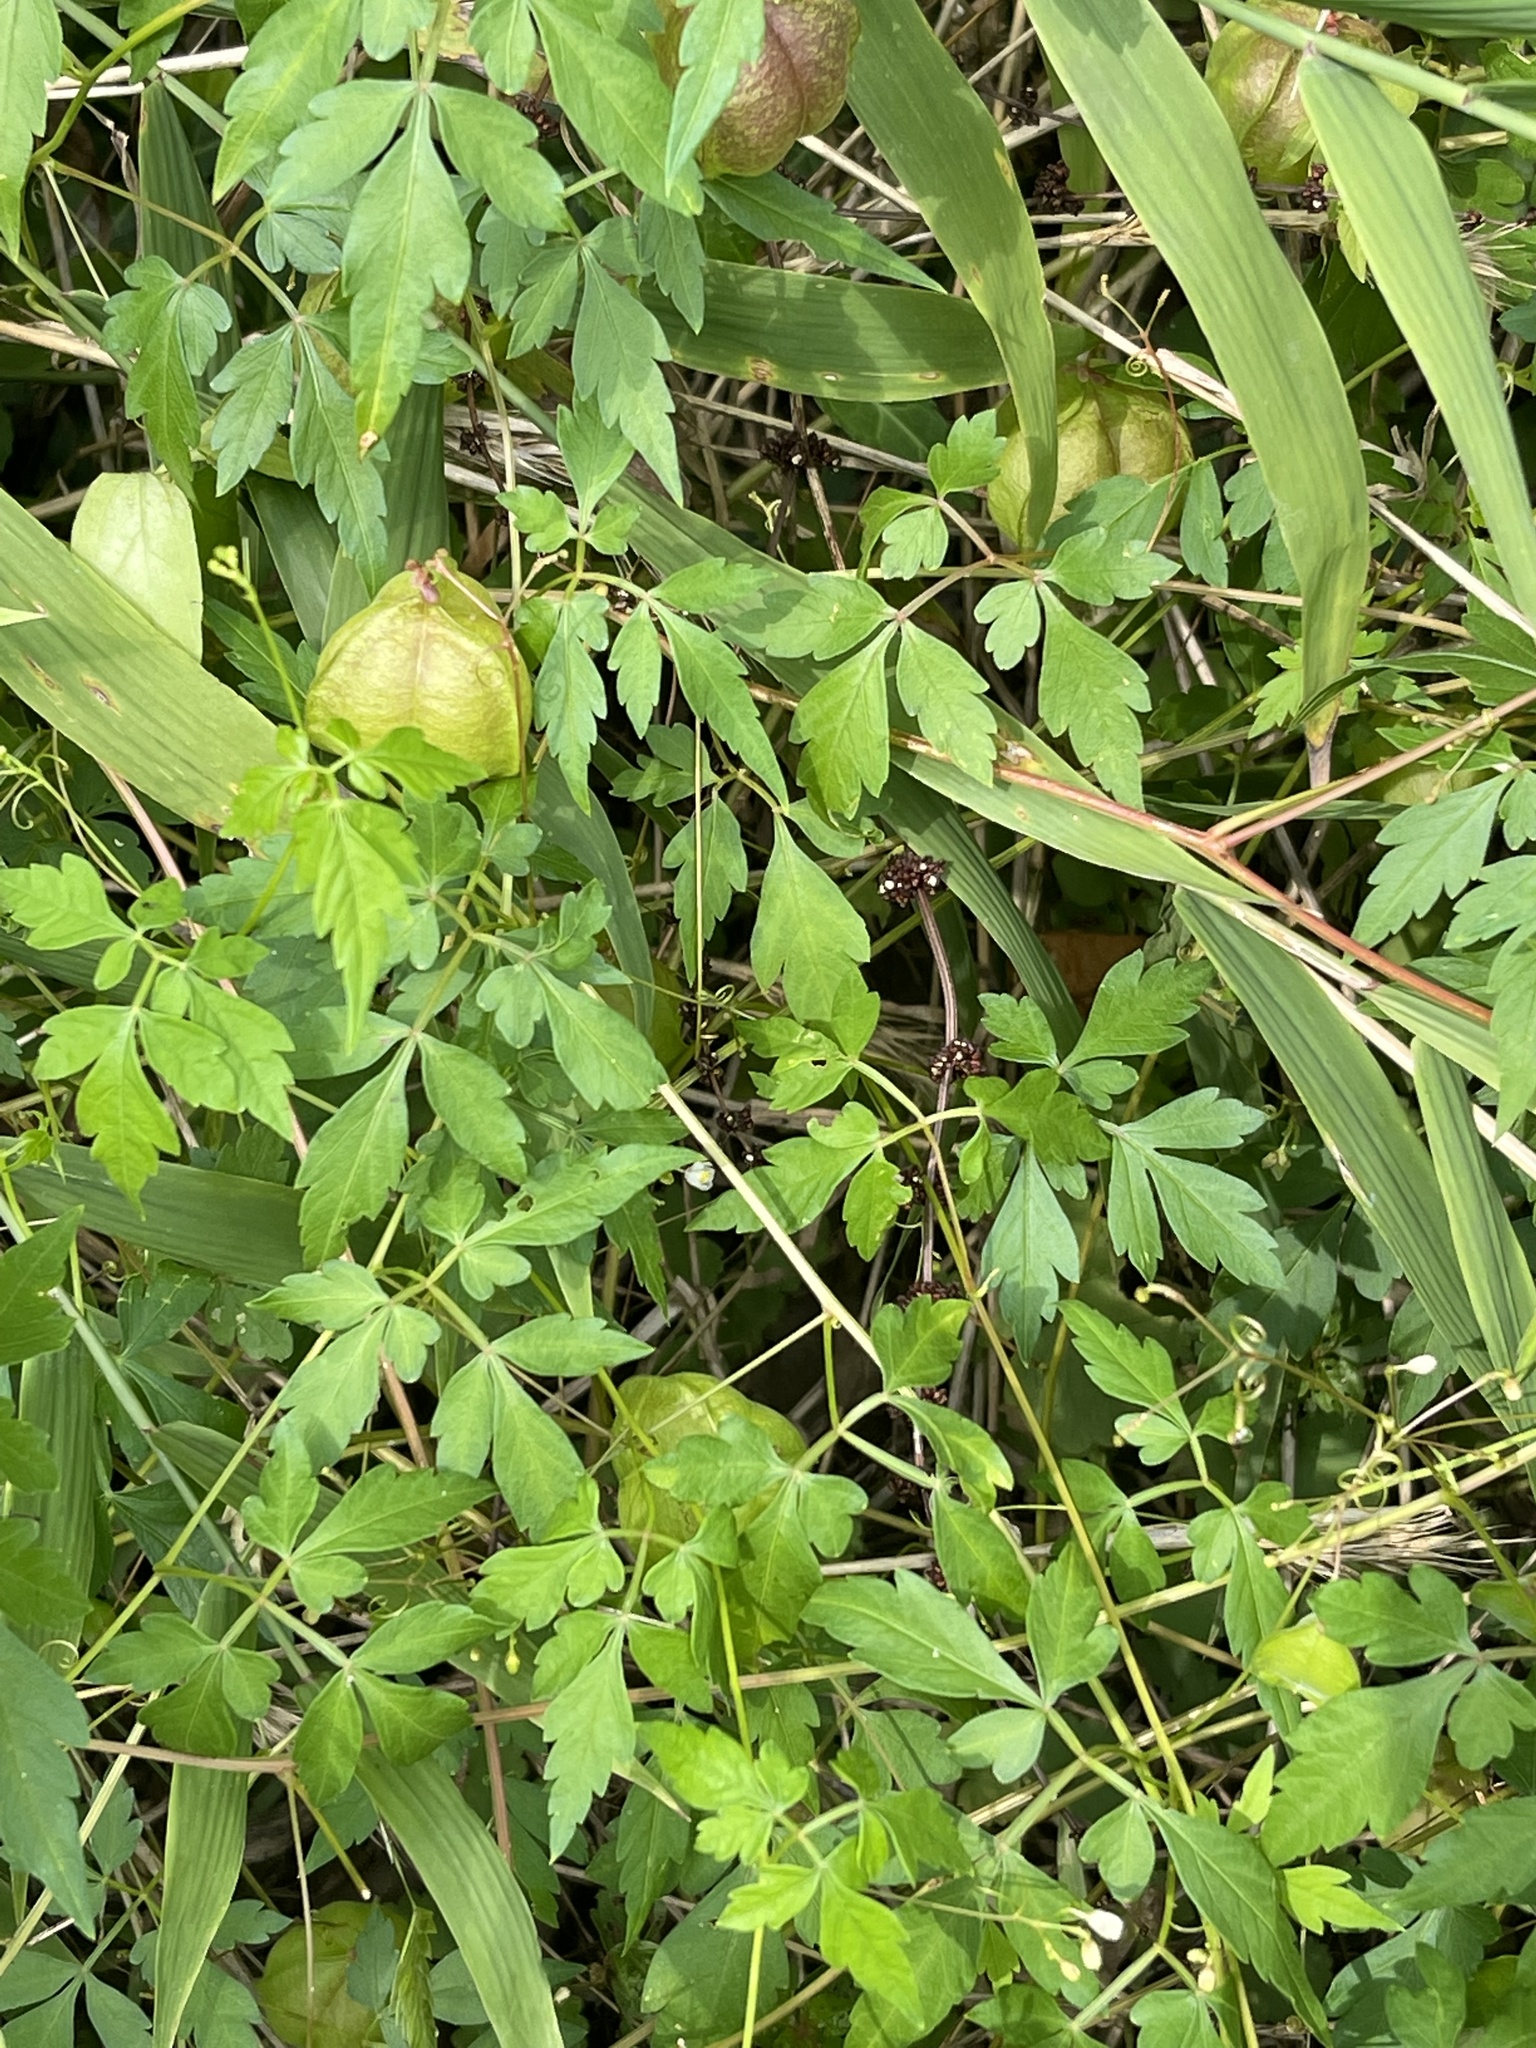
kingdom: Plantae
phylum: Tracheophyta
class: Magnoliopsida
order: Sapindales
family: Sapindaceae
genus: Cardiospermum
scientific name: Cardiospermum halicacabum
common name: Balloon vine
